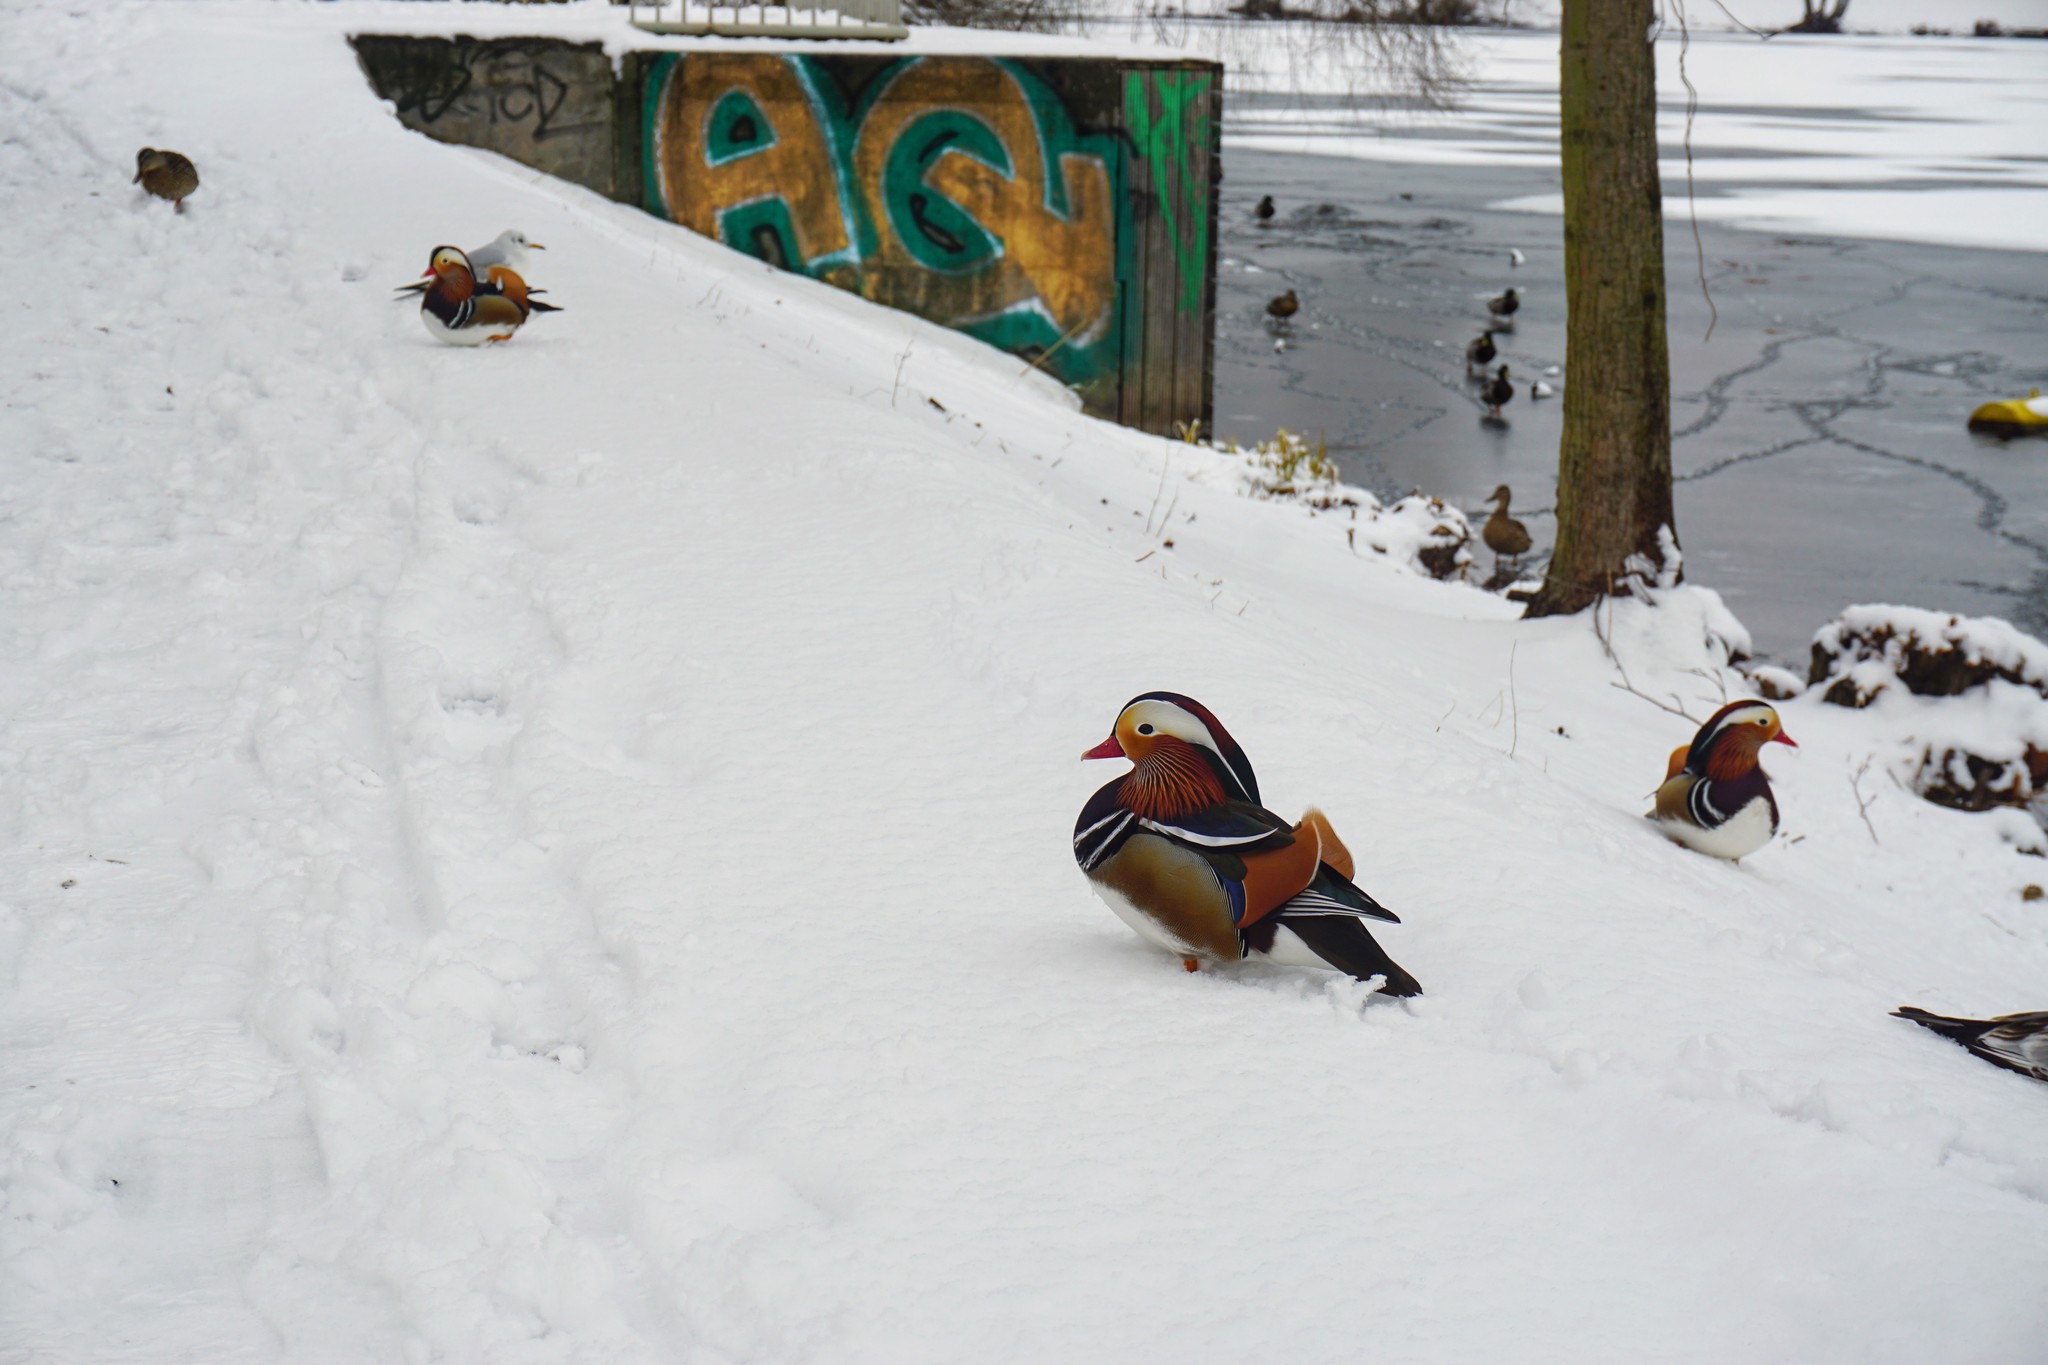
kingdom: Animalia
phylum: Chordata
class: Aves
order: Anseriformes
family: Anatidae
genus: Aix
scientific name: Aix galericulata
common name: Mandarin duck
